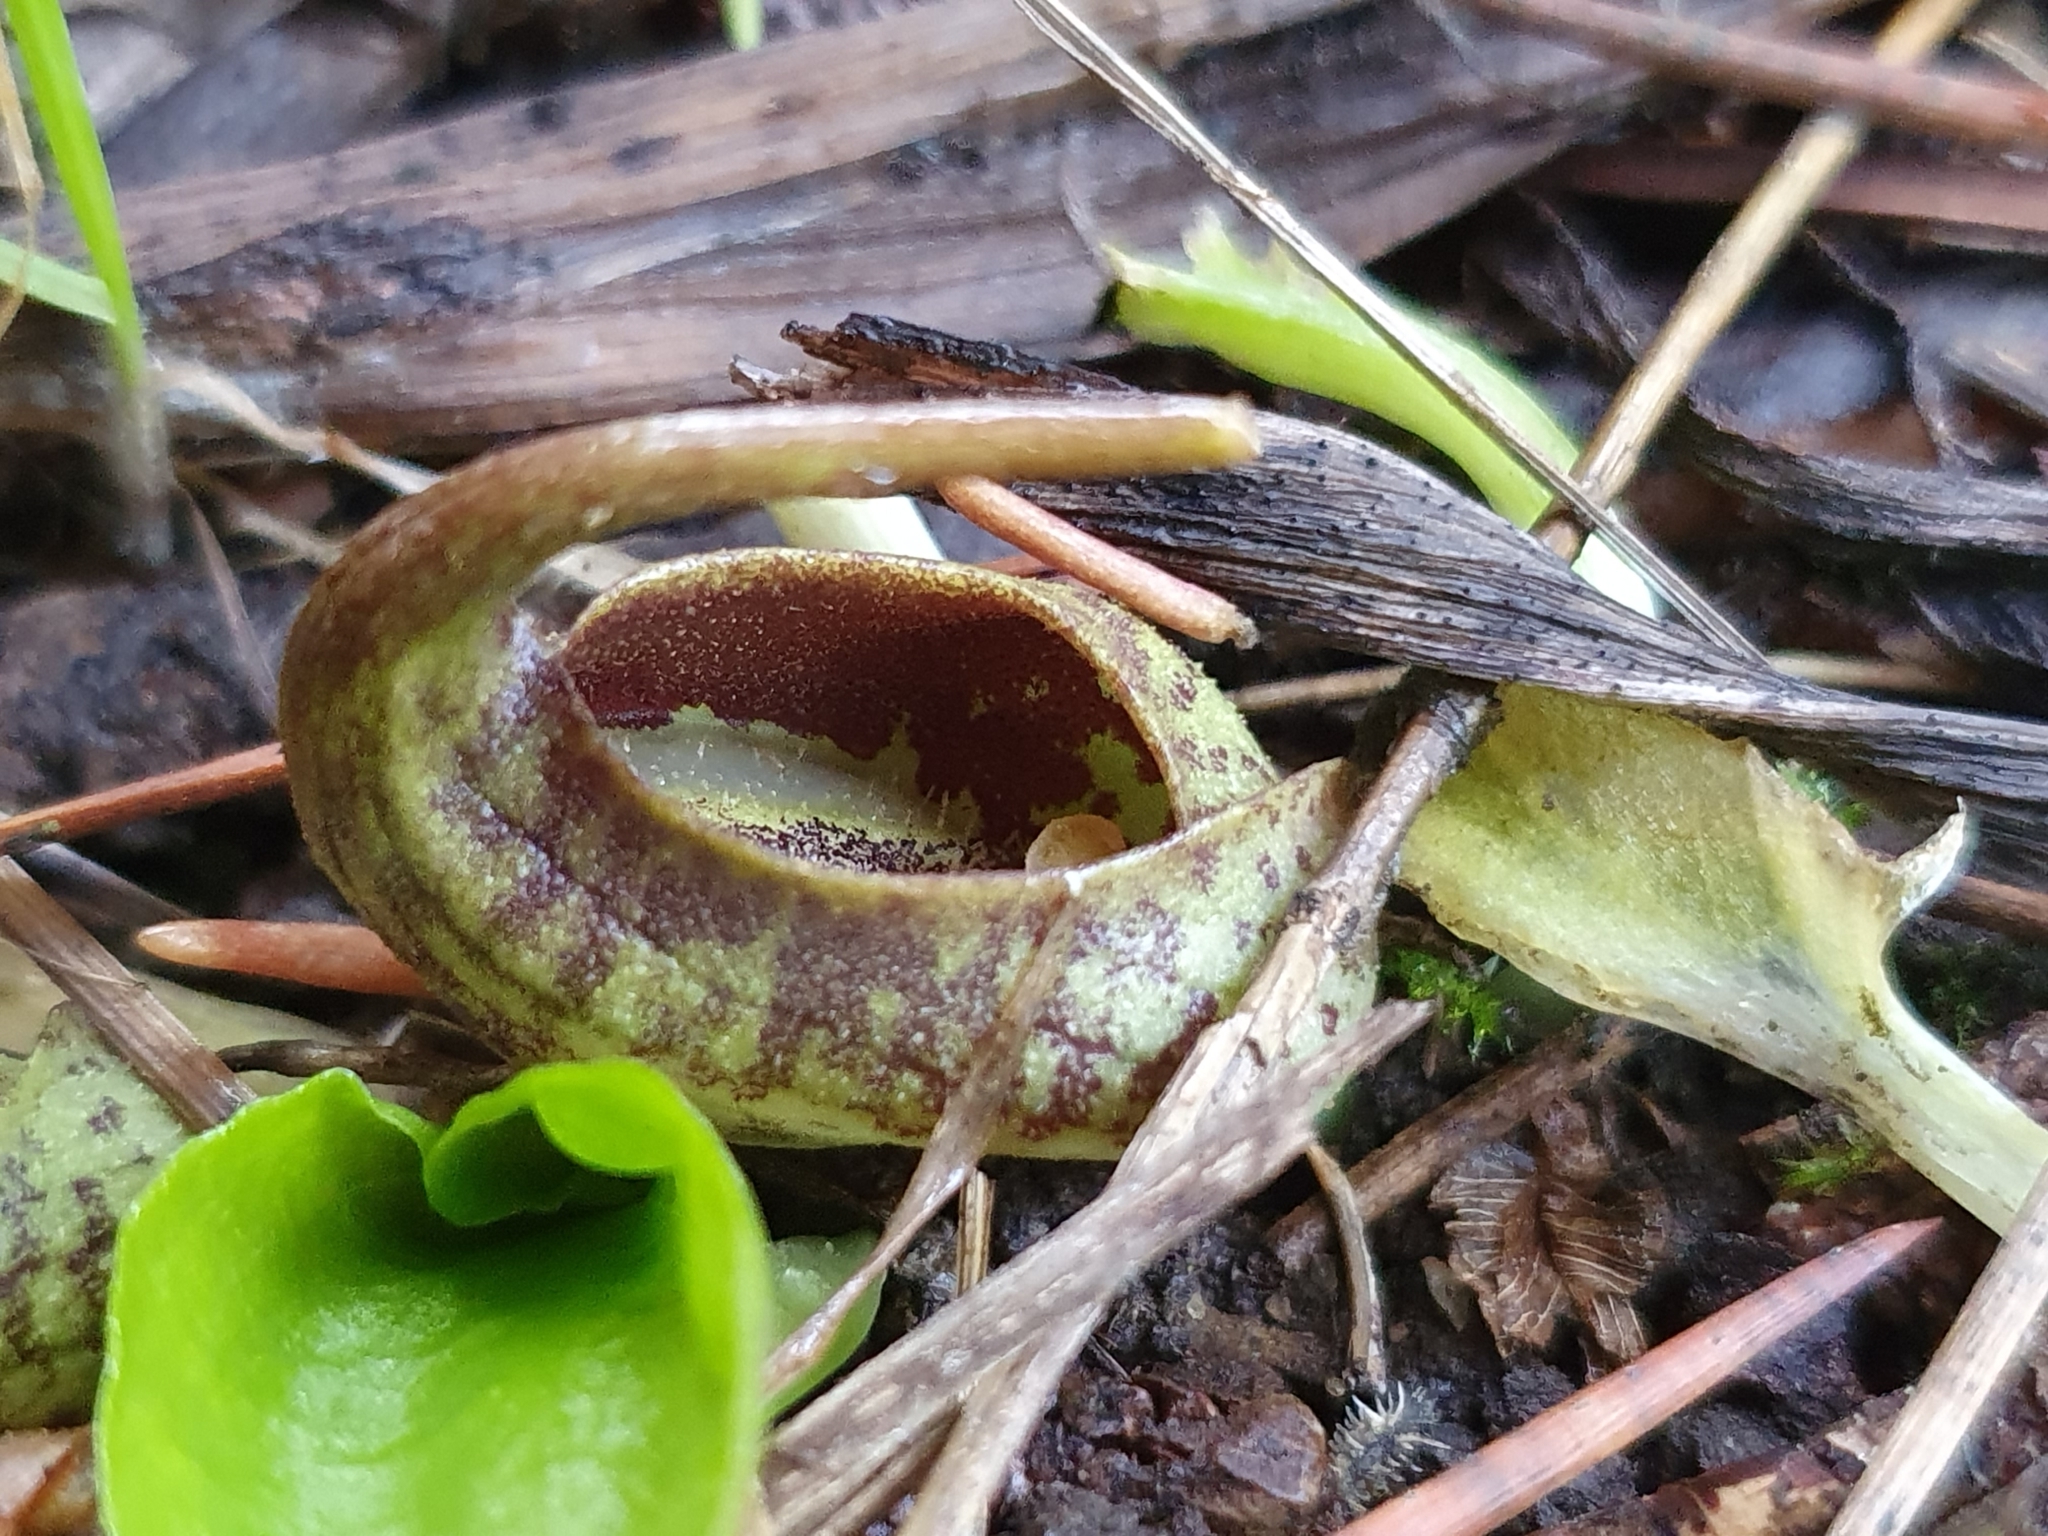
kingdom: Plantae
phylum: Tracheophyta
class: Liliopsida
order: Alismatales
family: Araceae
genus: Ambrosina
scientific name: Ambrosina bassii
